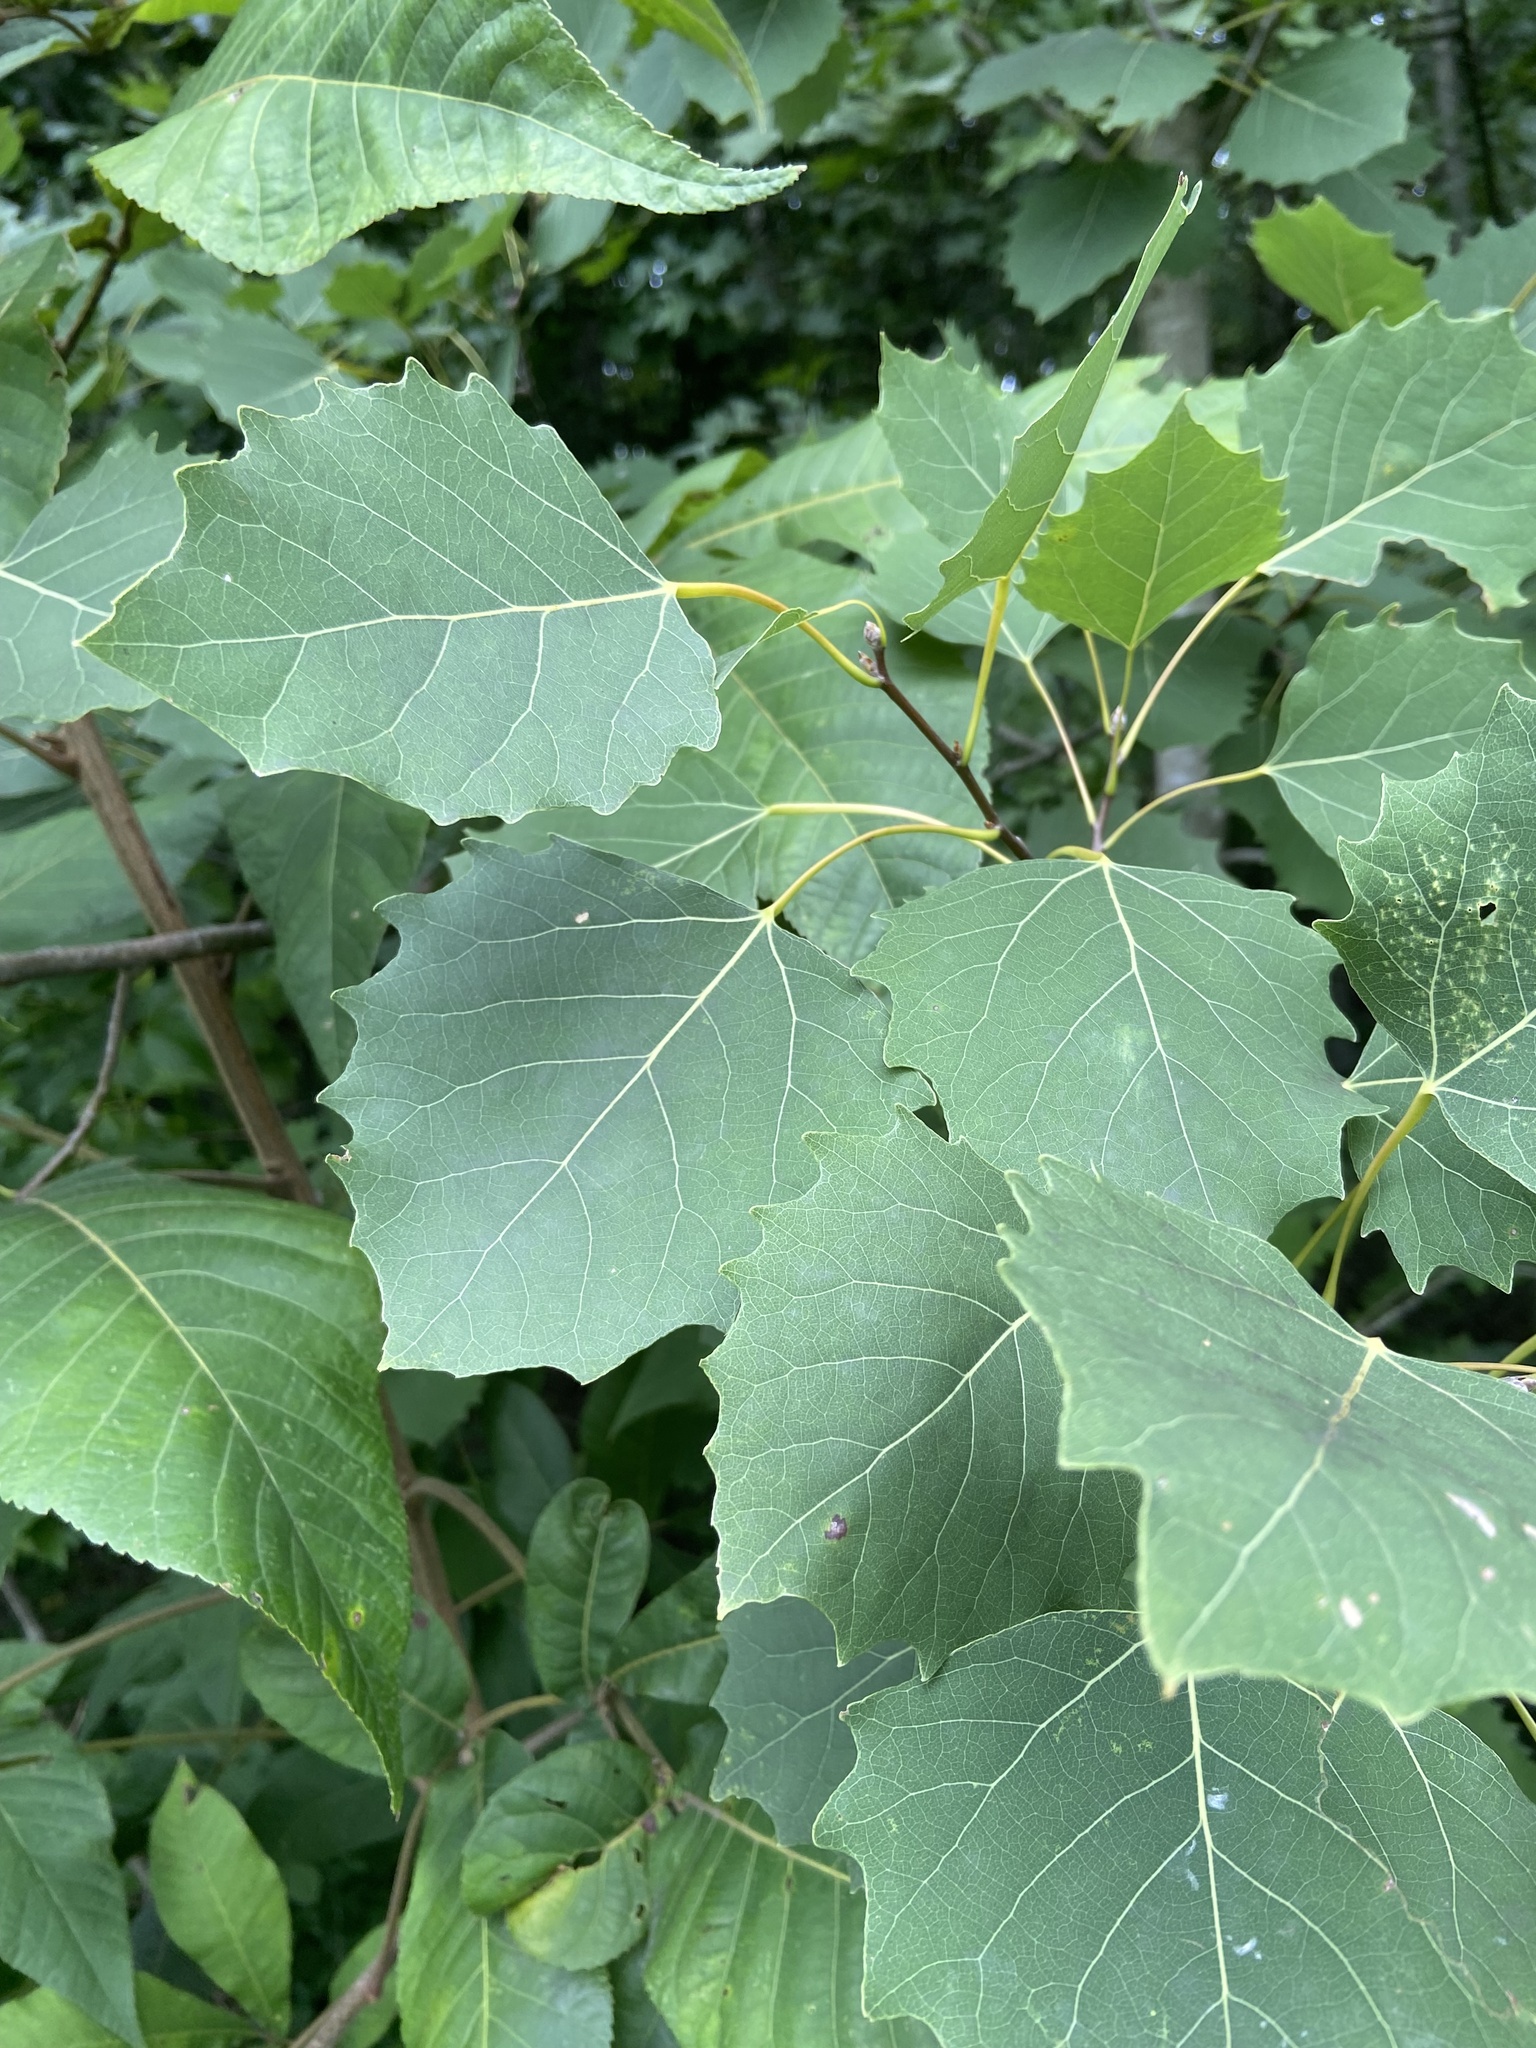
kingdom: Plantae
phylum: Tracheophyta
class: Magnoliopsida
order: Malpighiales
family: Salicaceae
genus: Populus
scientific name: Populus grandidentata
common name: Bigtooth aspen
